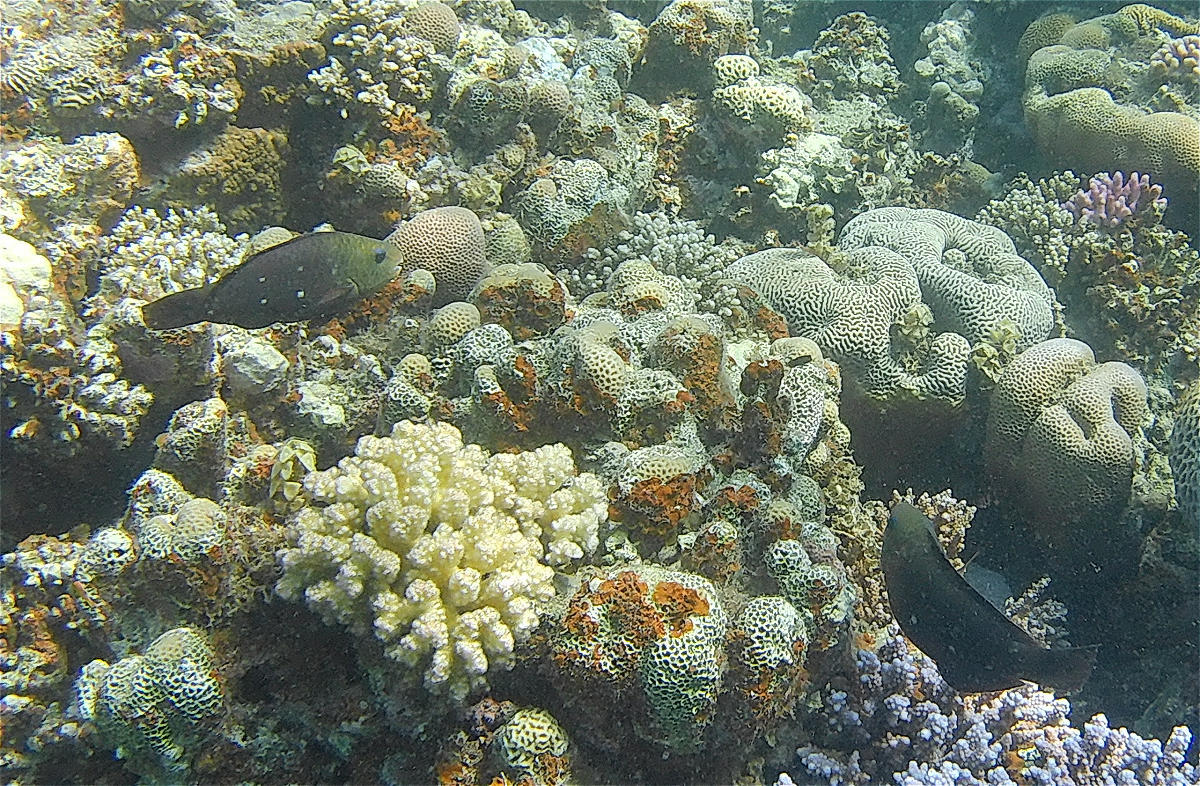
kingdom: Animalia
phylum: Chordata
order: Perciformes
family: Scaridae
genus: Chlorurus
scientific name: Chlorurus sordidus
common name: Bullethead parrotfish
